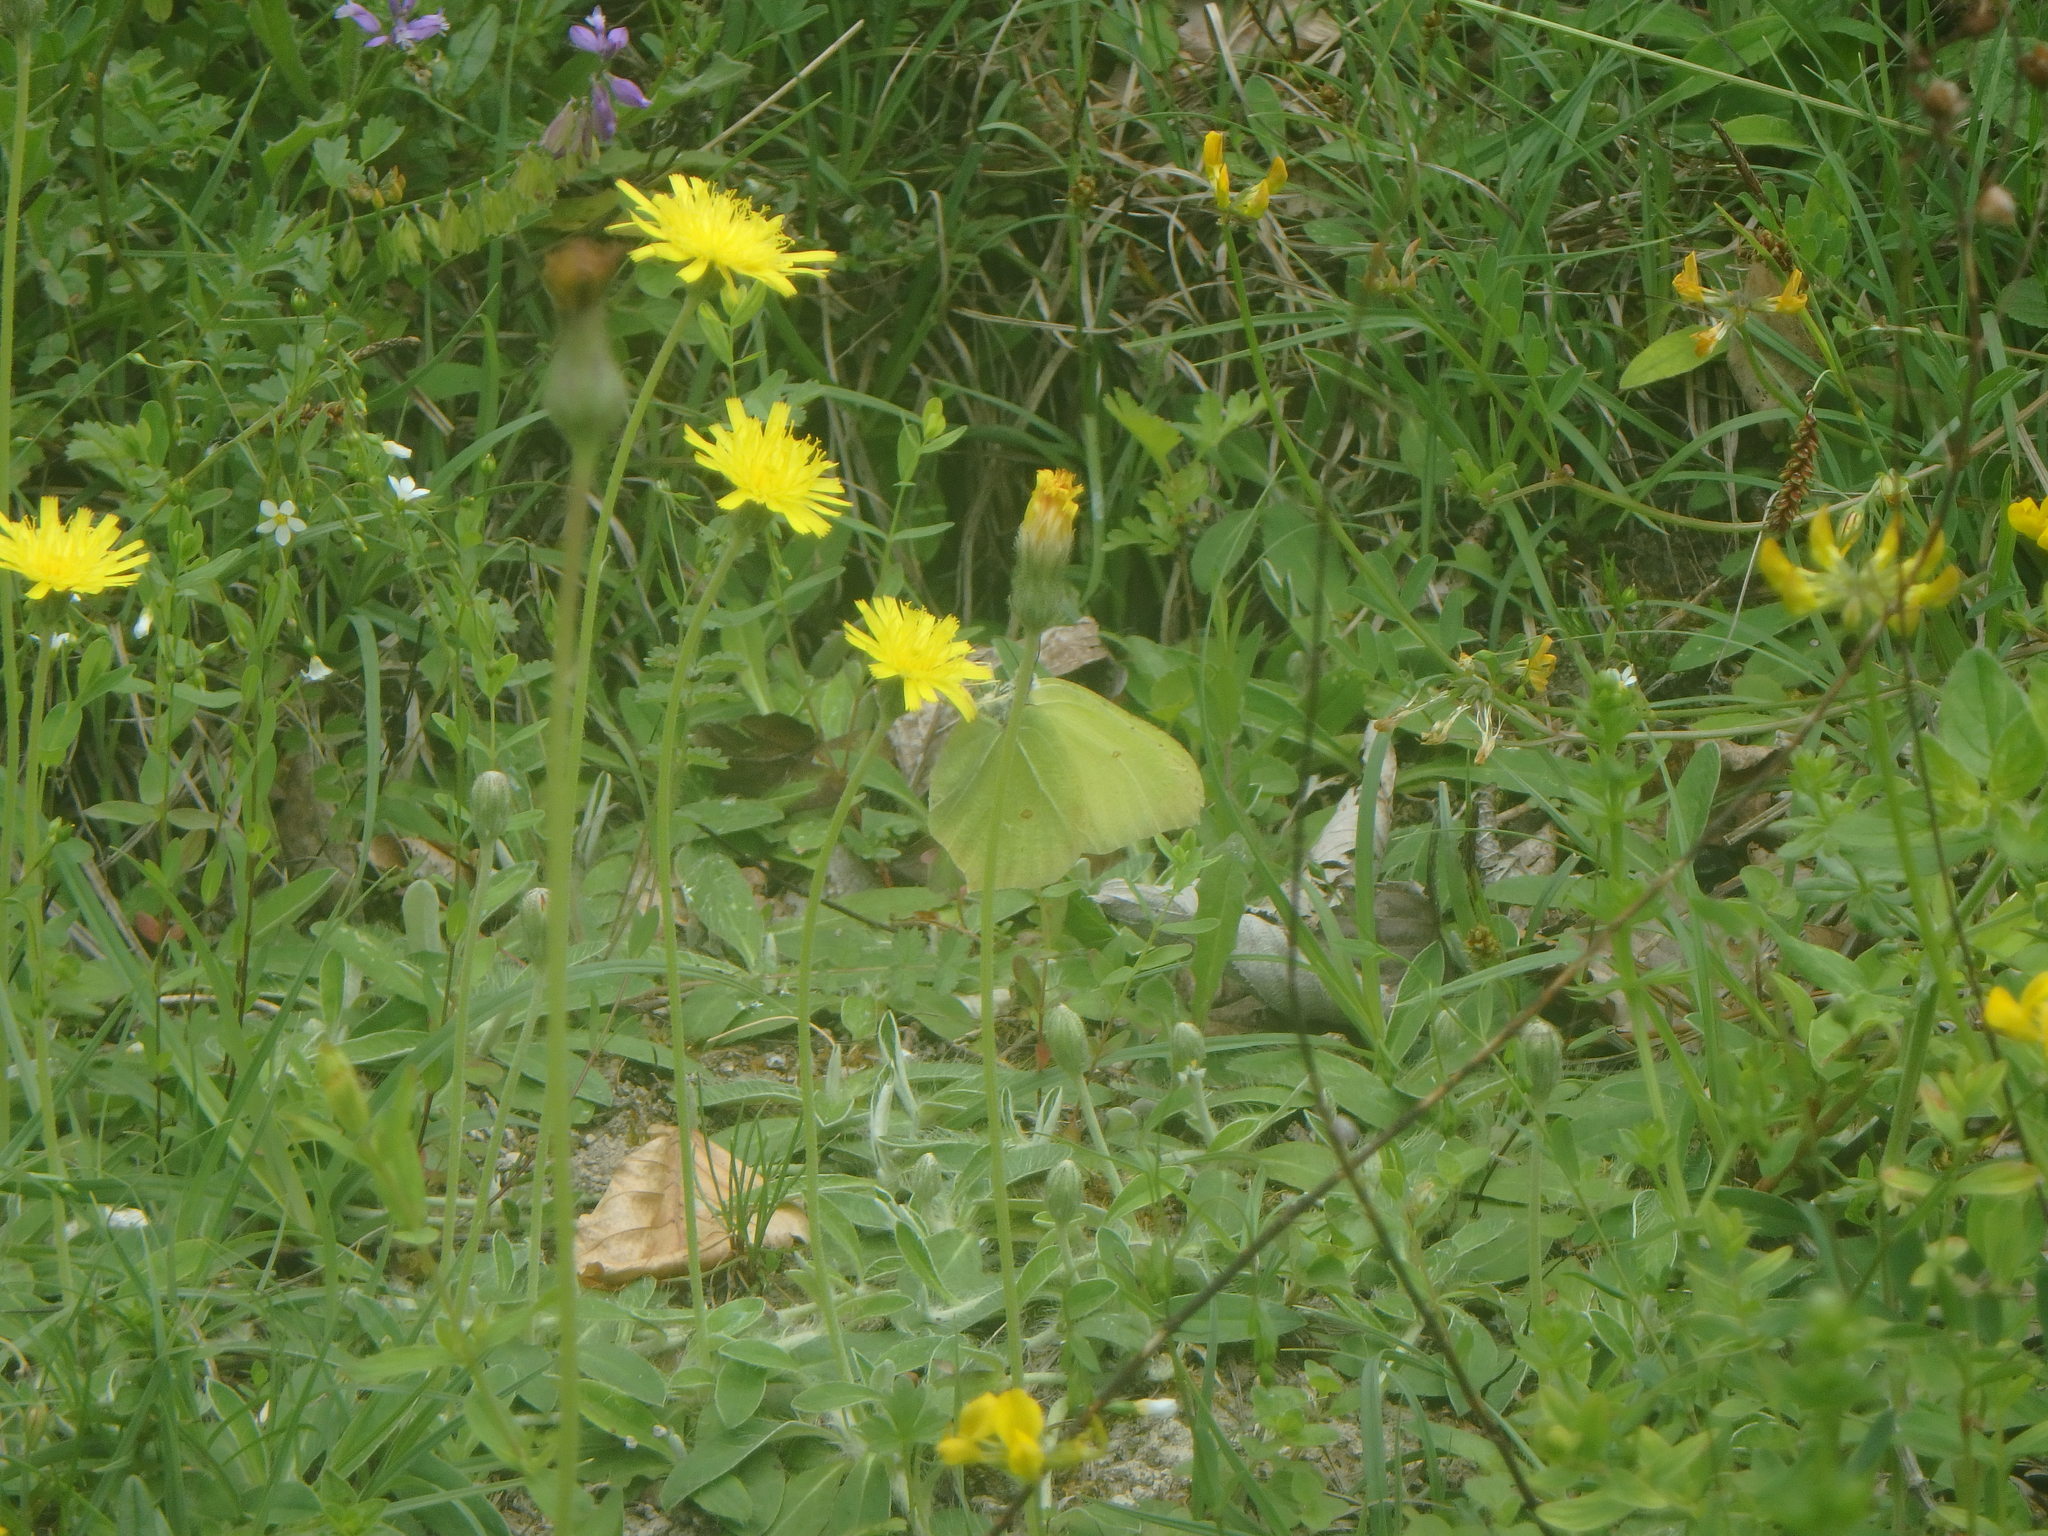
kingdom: Animalia
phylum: Arthropoda
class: Insecta
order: Lepidoptera
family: Pieridae
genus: Gonepteryx
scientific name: Gonepteryx rhamni
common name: Brimstone
